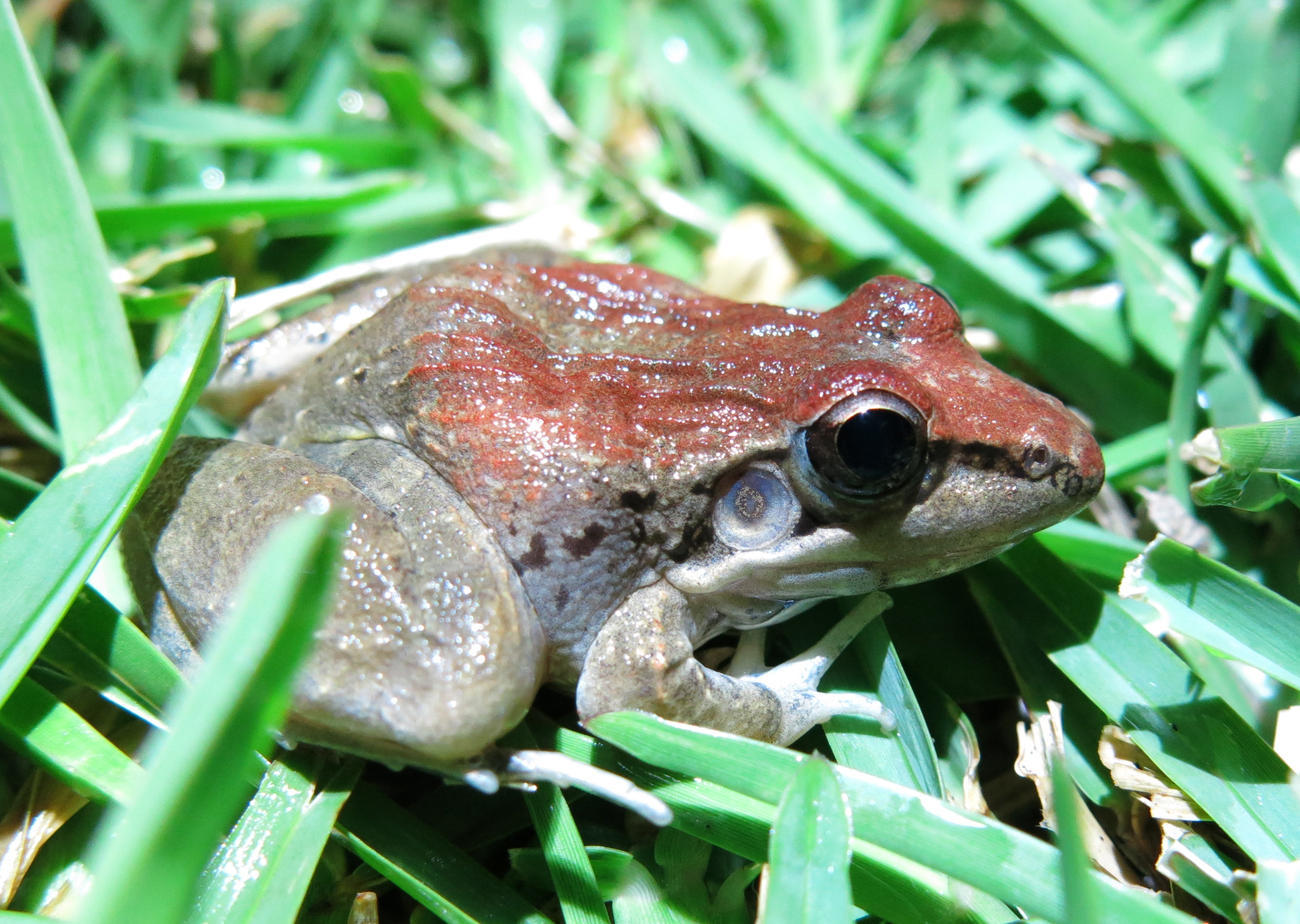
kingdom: Animalia
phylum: Chordata
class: Amphibia
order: Anura
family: Ptychadenidae
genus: Ptychadena
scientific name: Ptychadena anchietae
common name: Anchieta's ridged frog
